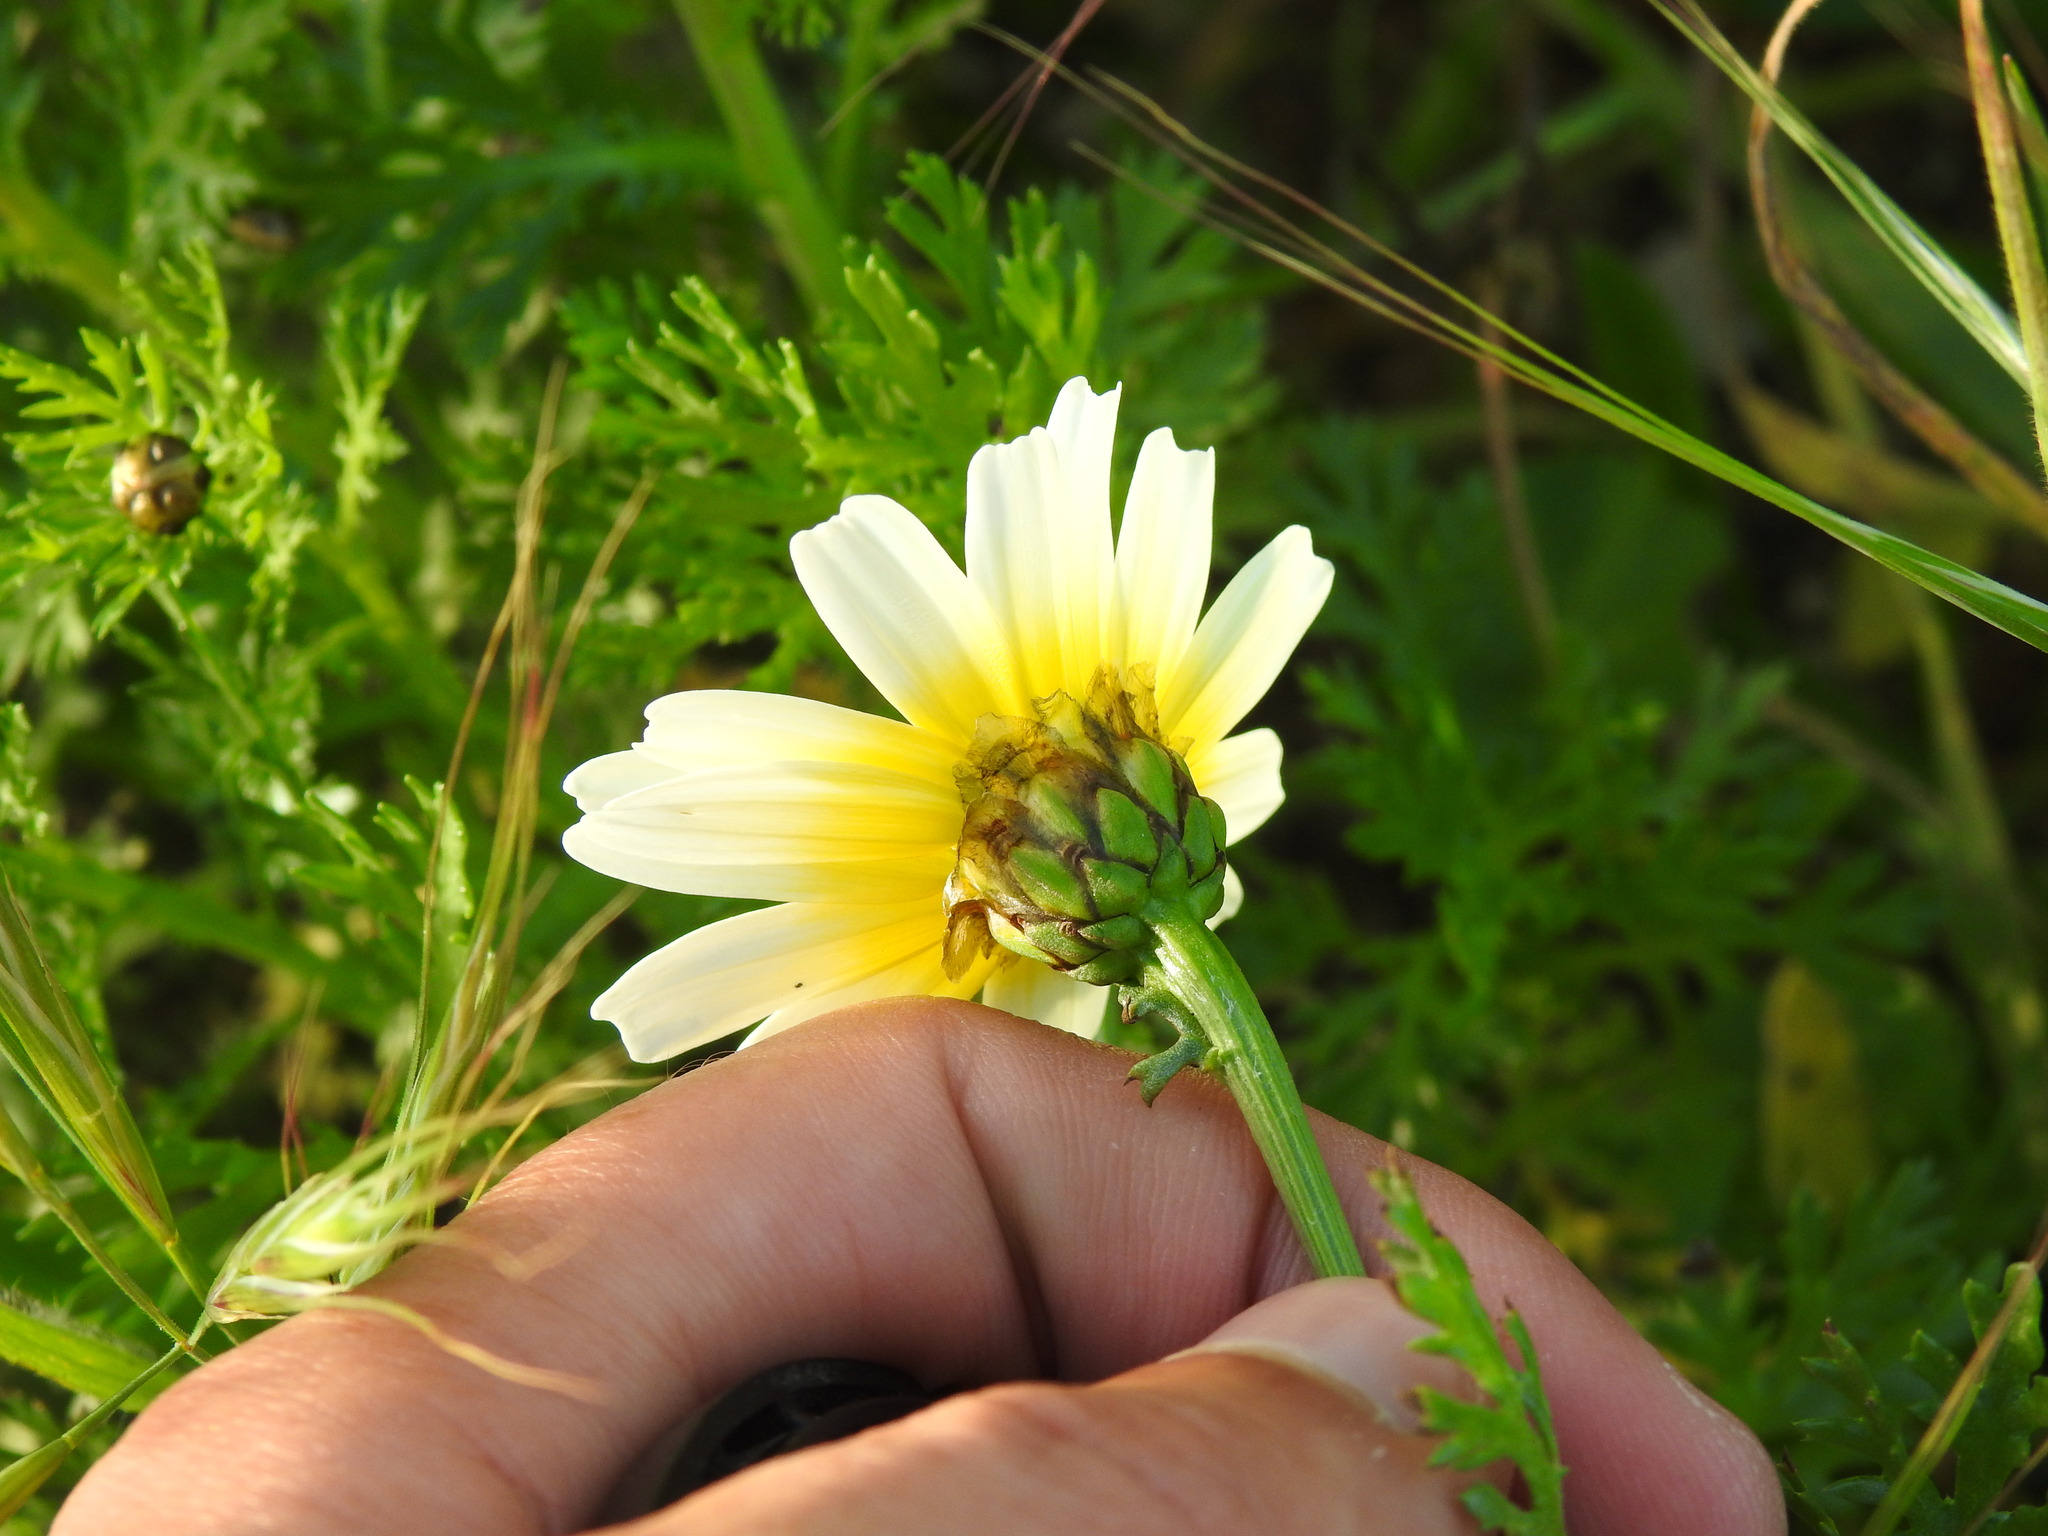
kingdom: Plantae
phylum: Tracheophyta
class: Magnoliopsida
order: Asterales
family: Asteraceae
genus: Glebionis
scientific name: Glebionis coronaria
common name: Crowndaisy
